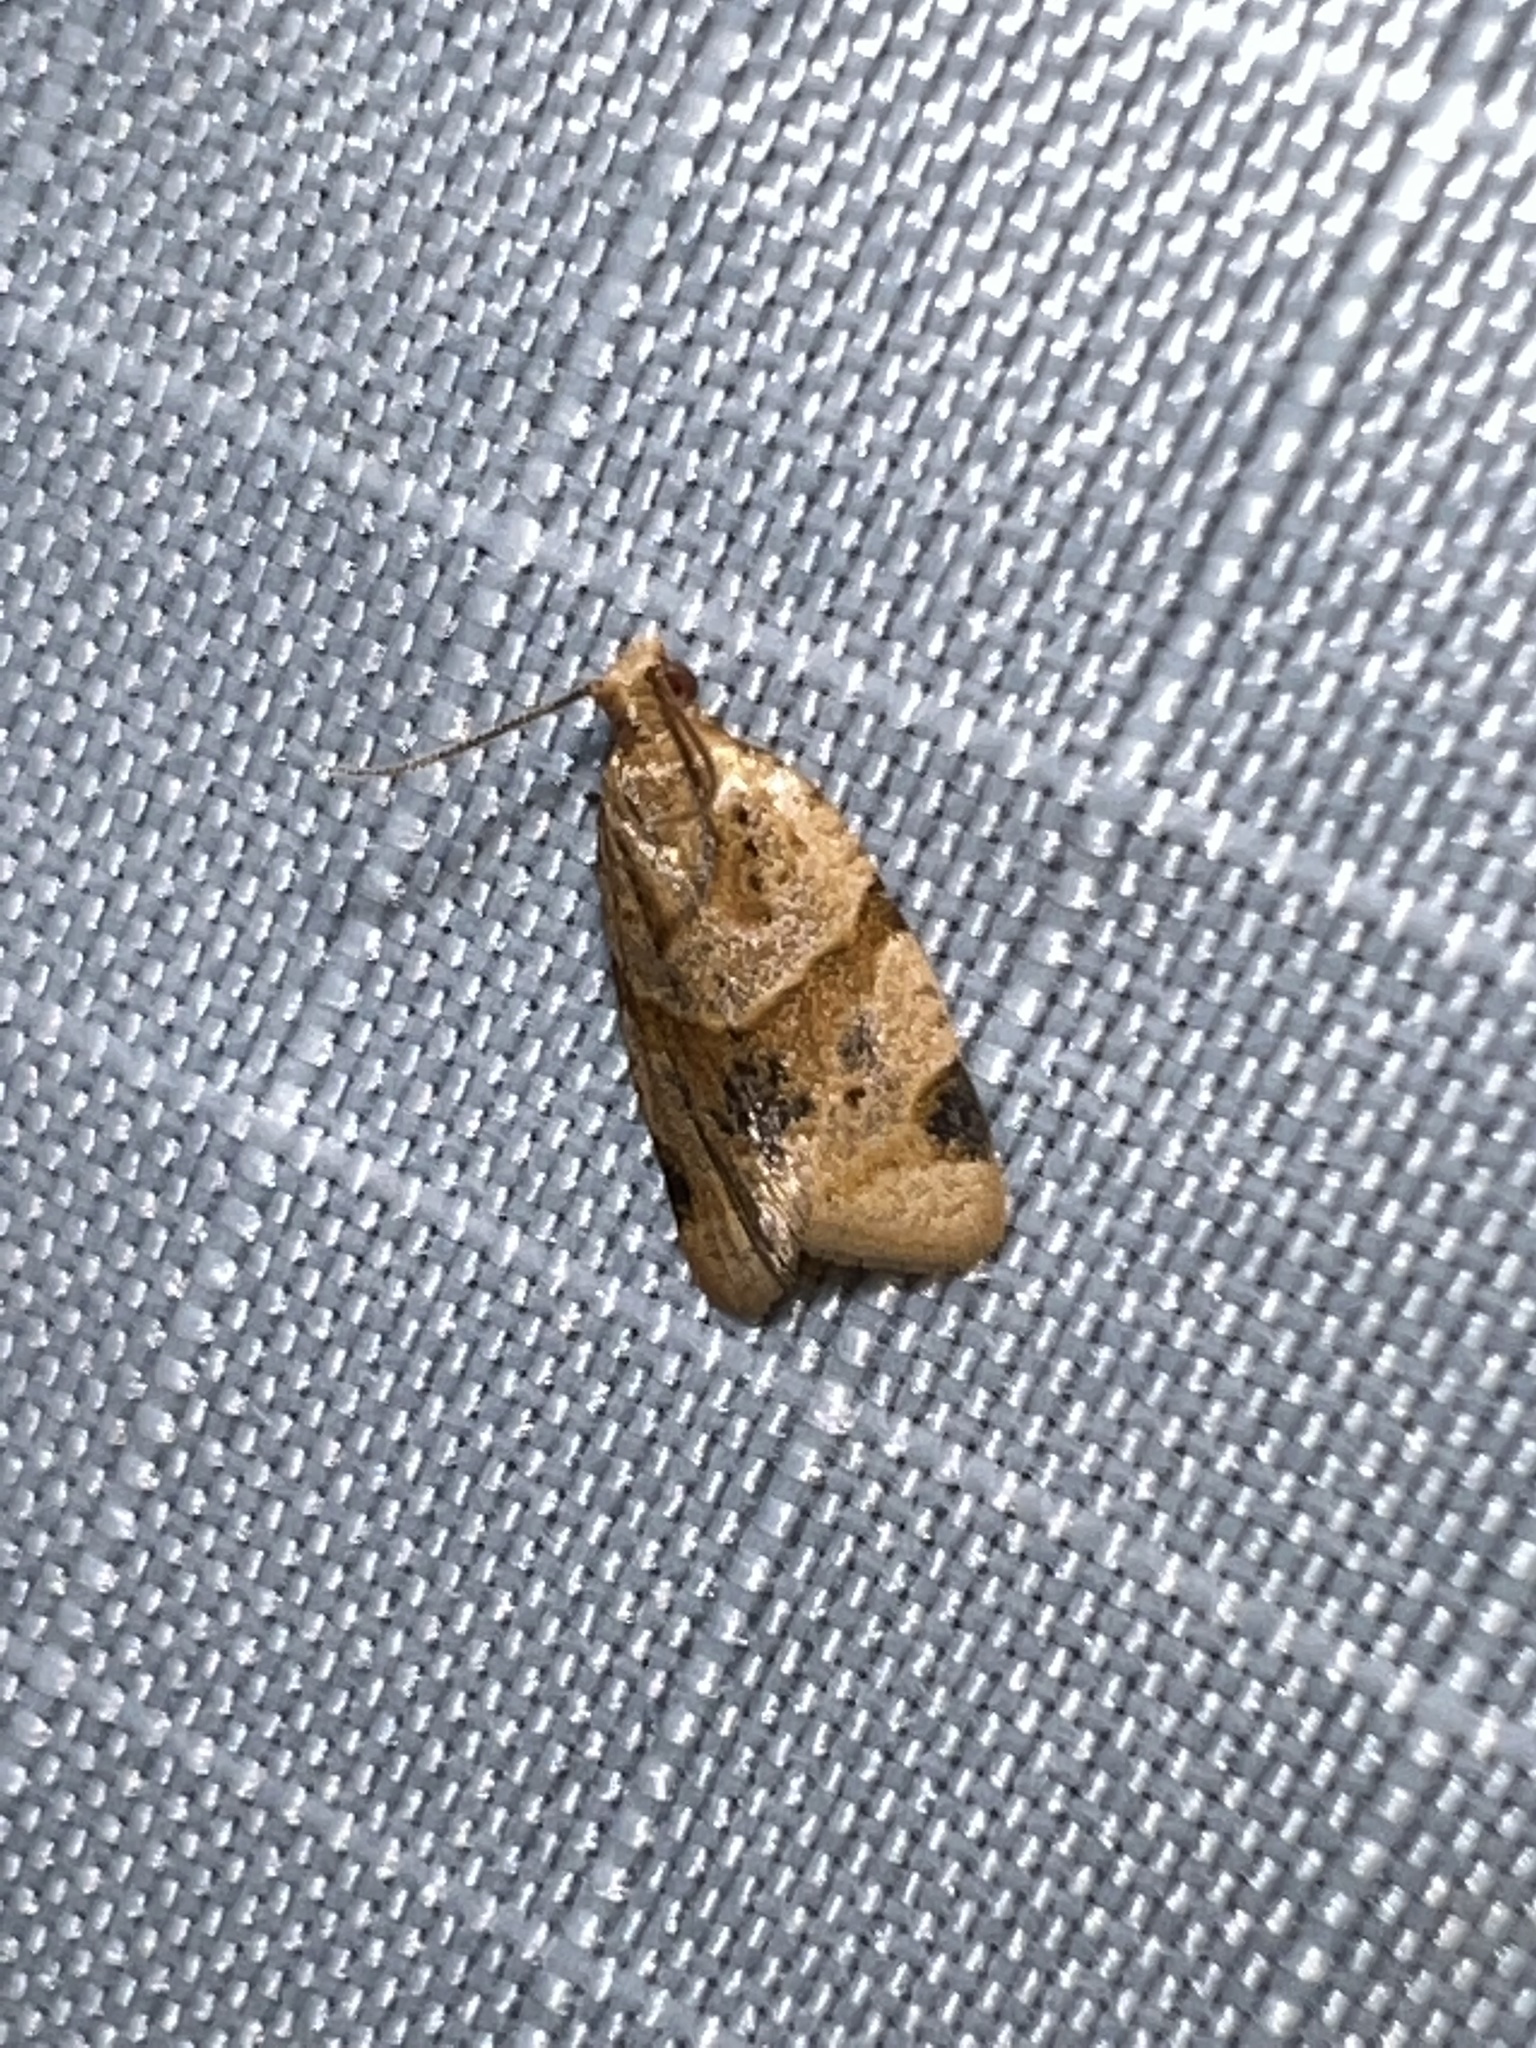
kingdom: Animalia
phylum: Arthropoda
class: Insecta
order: Lepidoptera
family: Tortricidae
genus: Clepsis
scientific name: Clepsis peritana
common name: Garden tortrix
